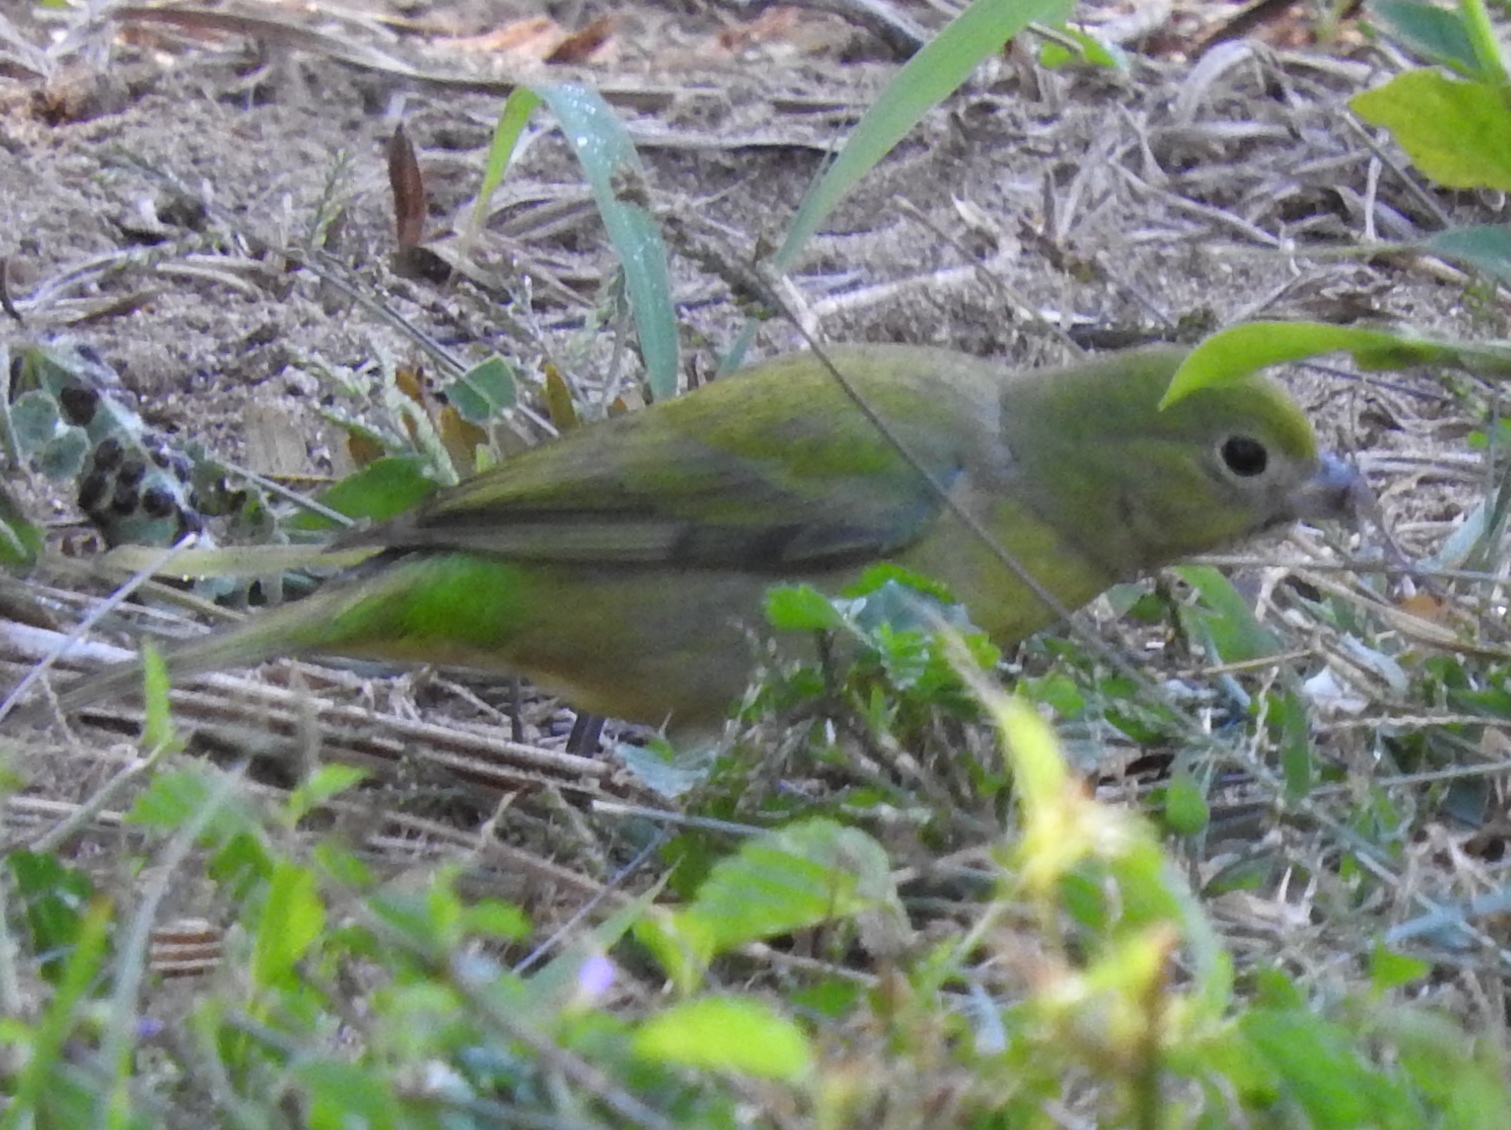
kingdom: Animalia
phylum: Chordata
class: Aves
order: Passeriformes
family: Cardinalidae
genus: Passerina
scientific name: Passerina ciris
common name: Painted bunting
